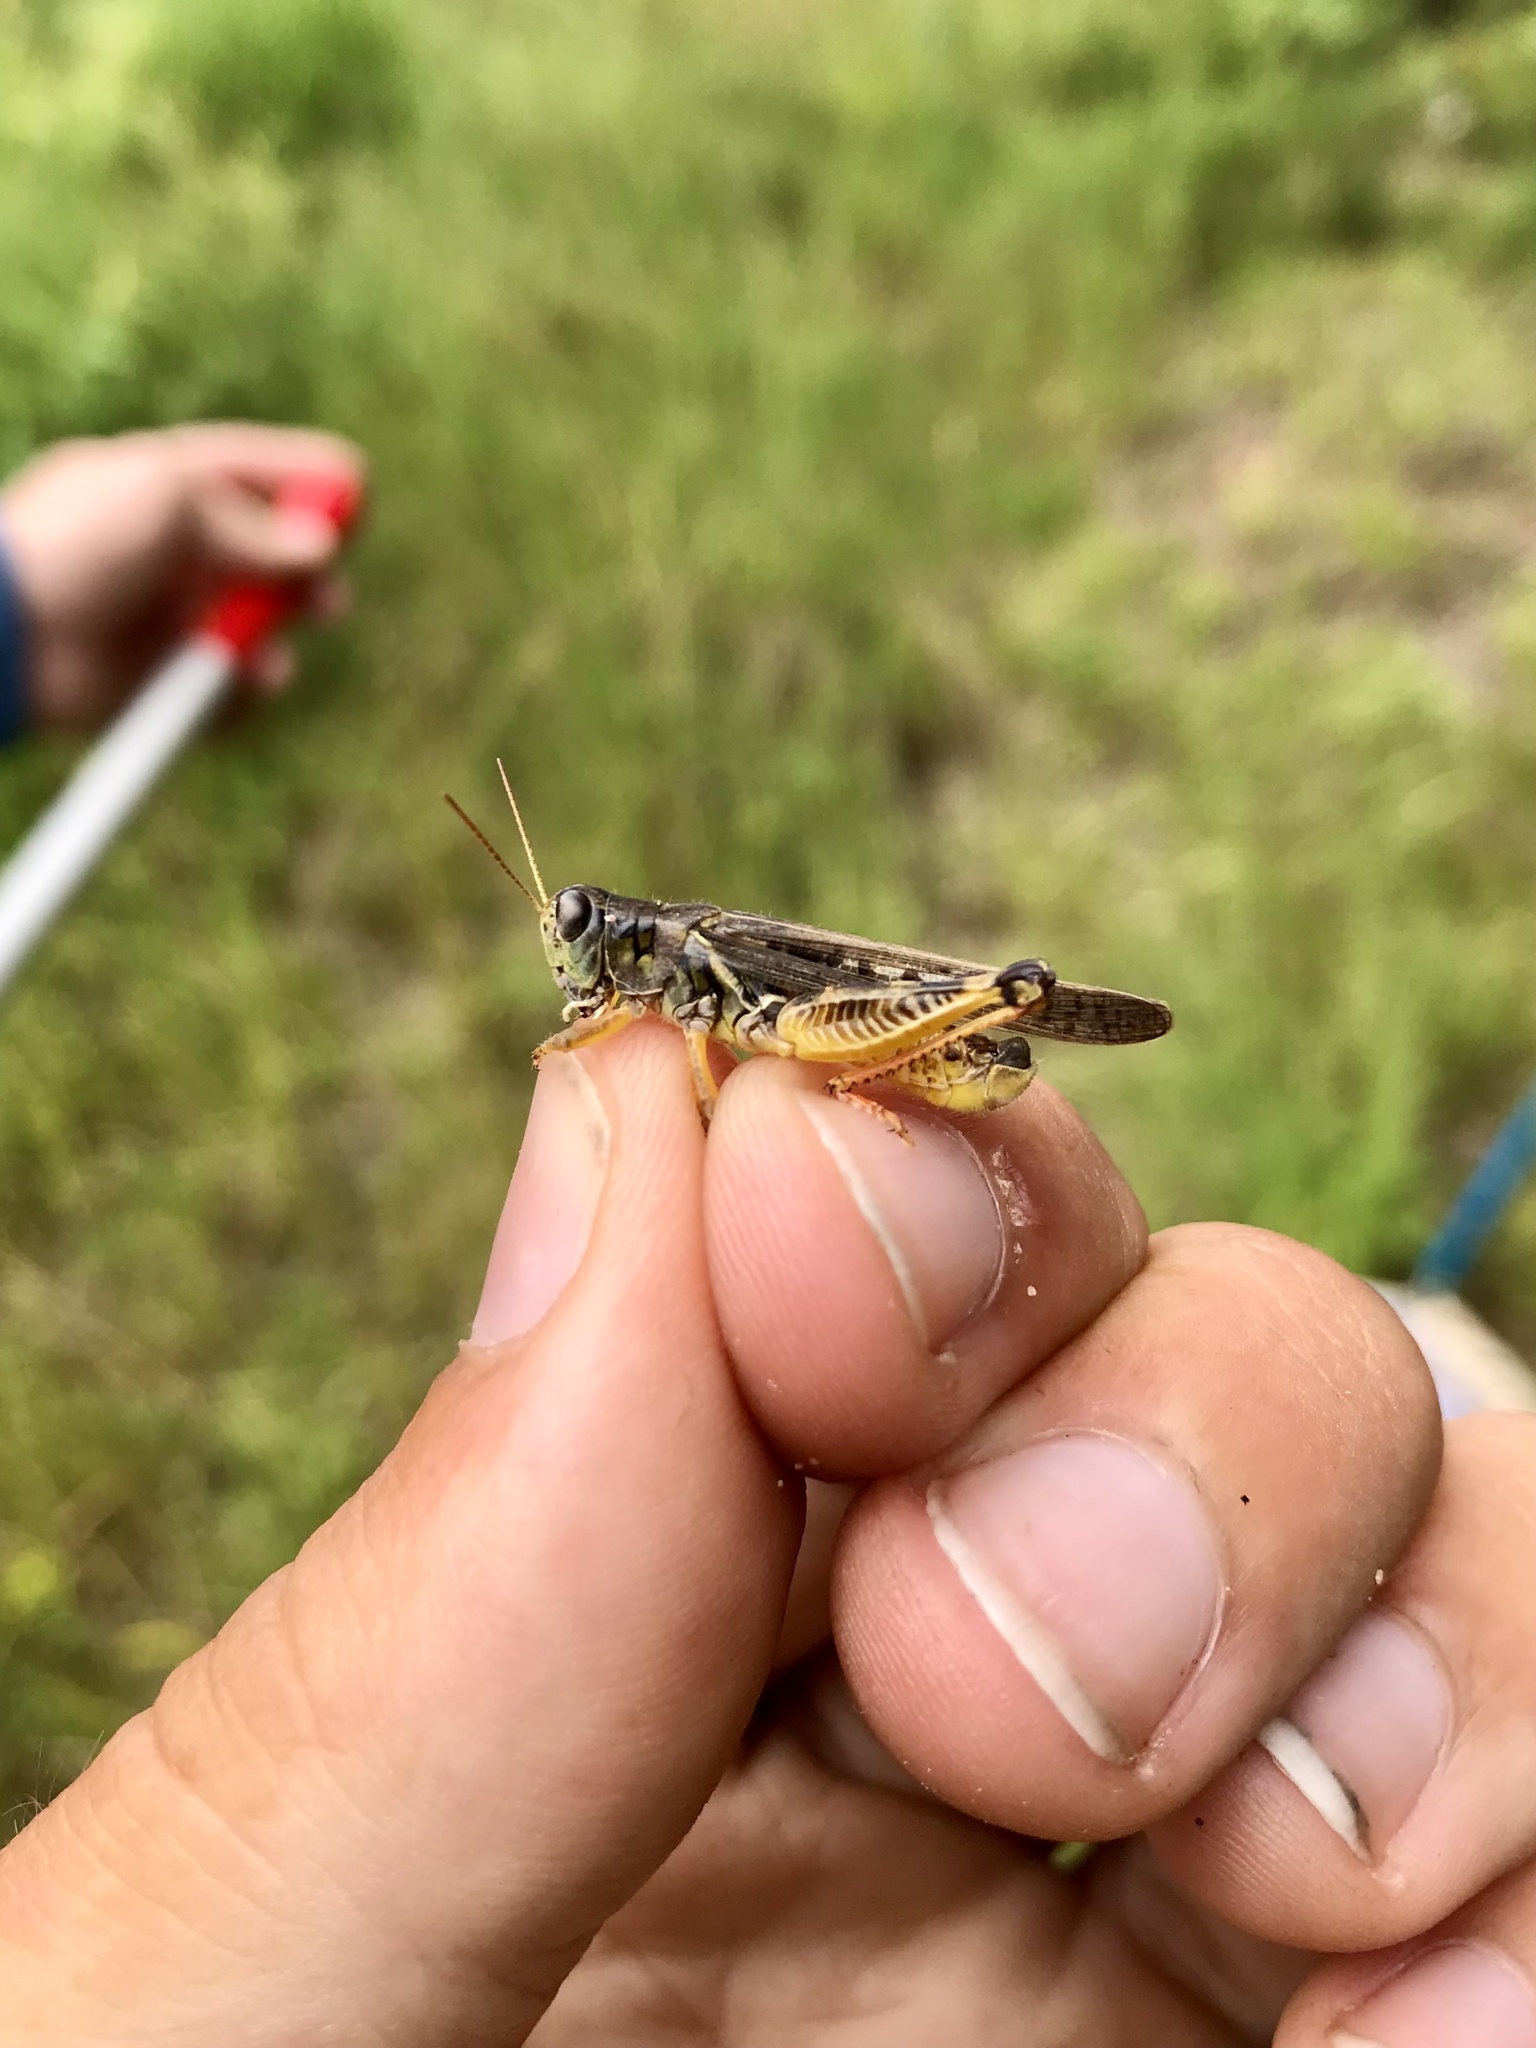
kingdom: Animalia
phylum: Arthropoda
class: Insecta
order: Orthoptera
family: Acrididae
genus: Melanoplus
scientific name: Melanoplus sanguinipes
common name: Migratory grasshopper
